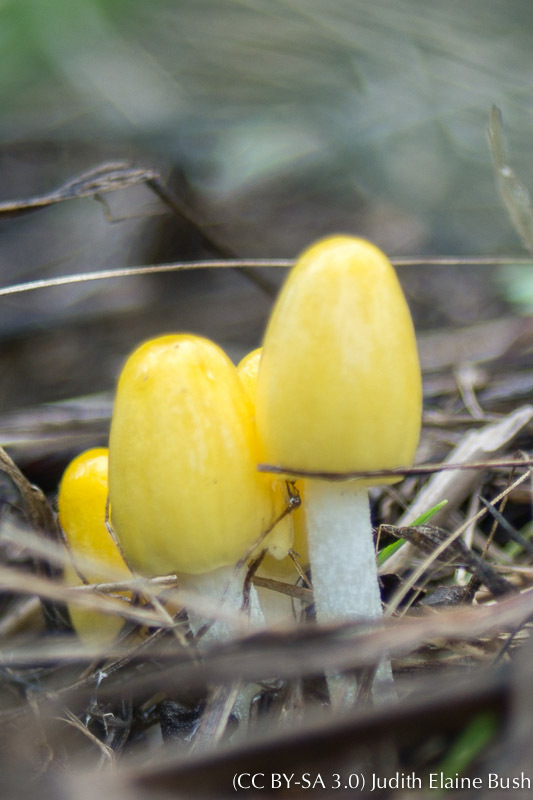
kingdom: Fungi
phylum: Basidiomycota
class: Agaricomycetes
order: Agaricales
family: Bolbitiaceae
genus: Bolbitius
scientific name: Bolbitius titubans
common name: Yellow fieldcap
